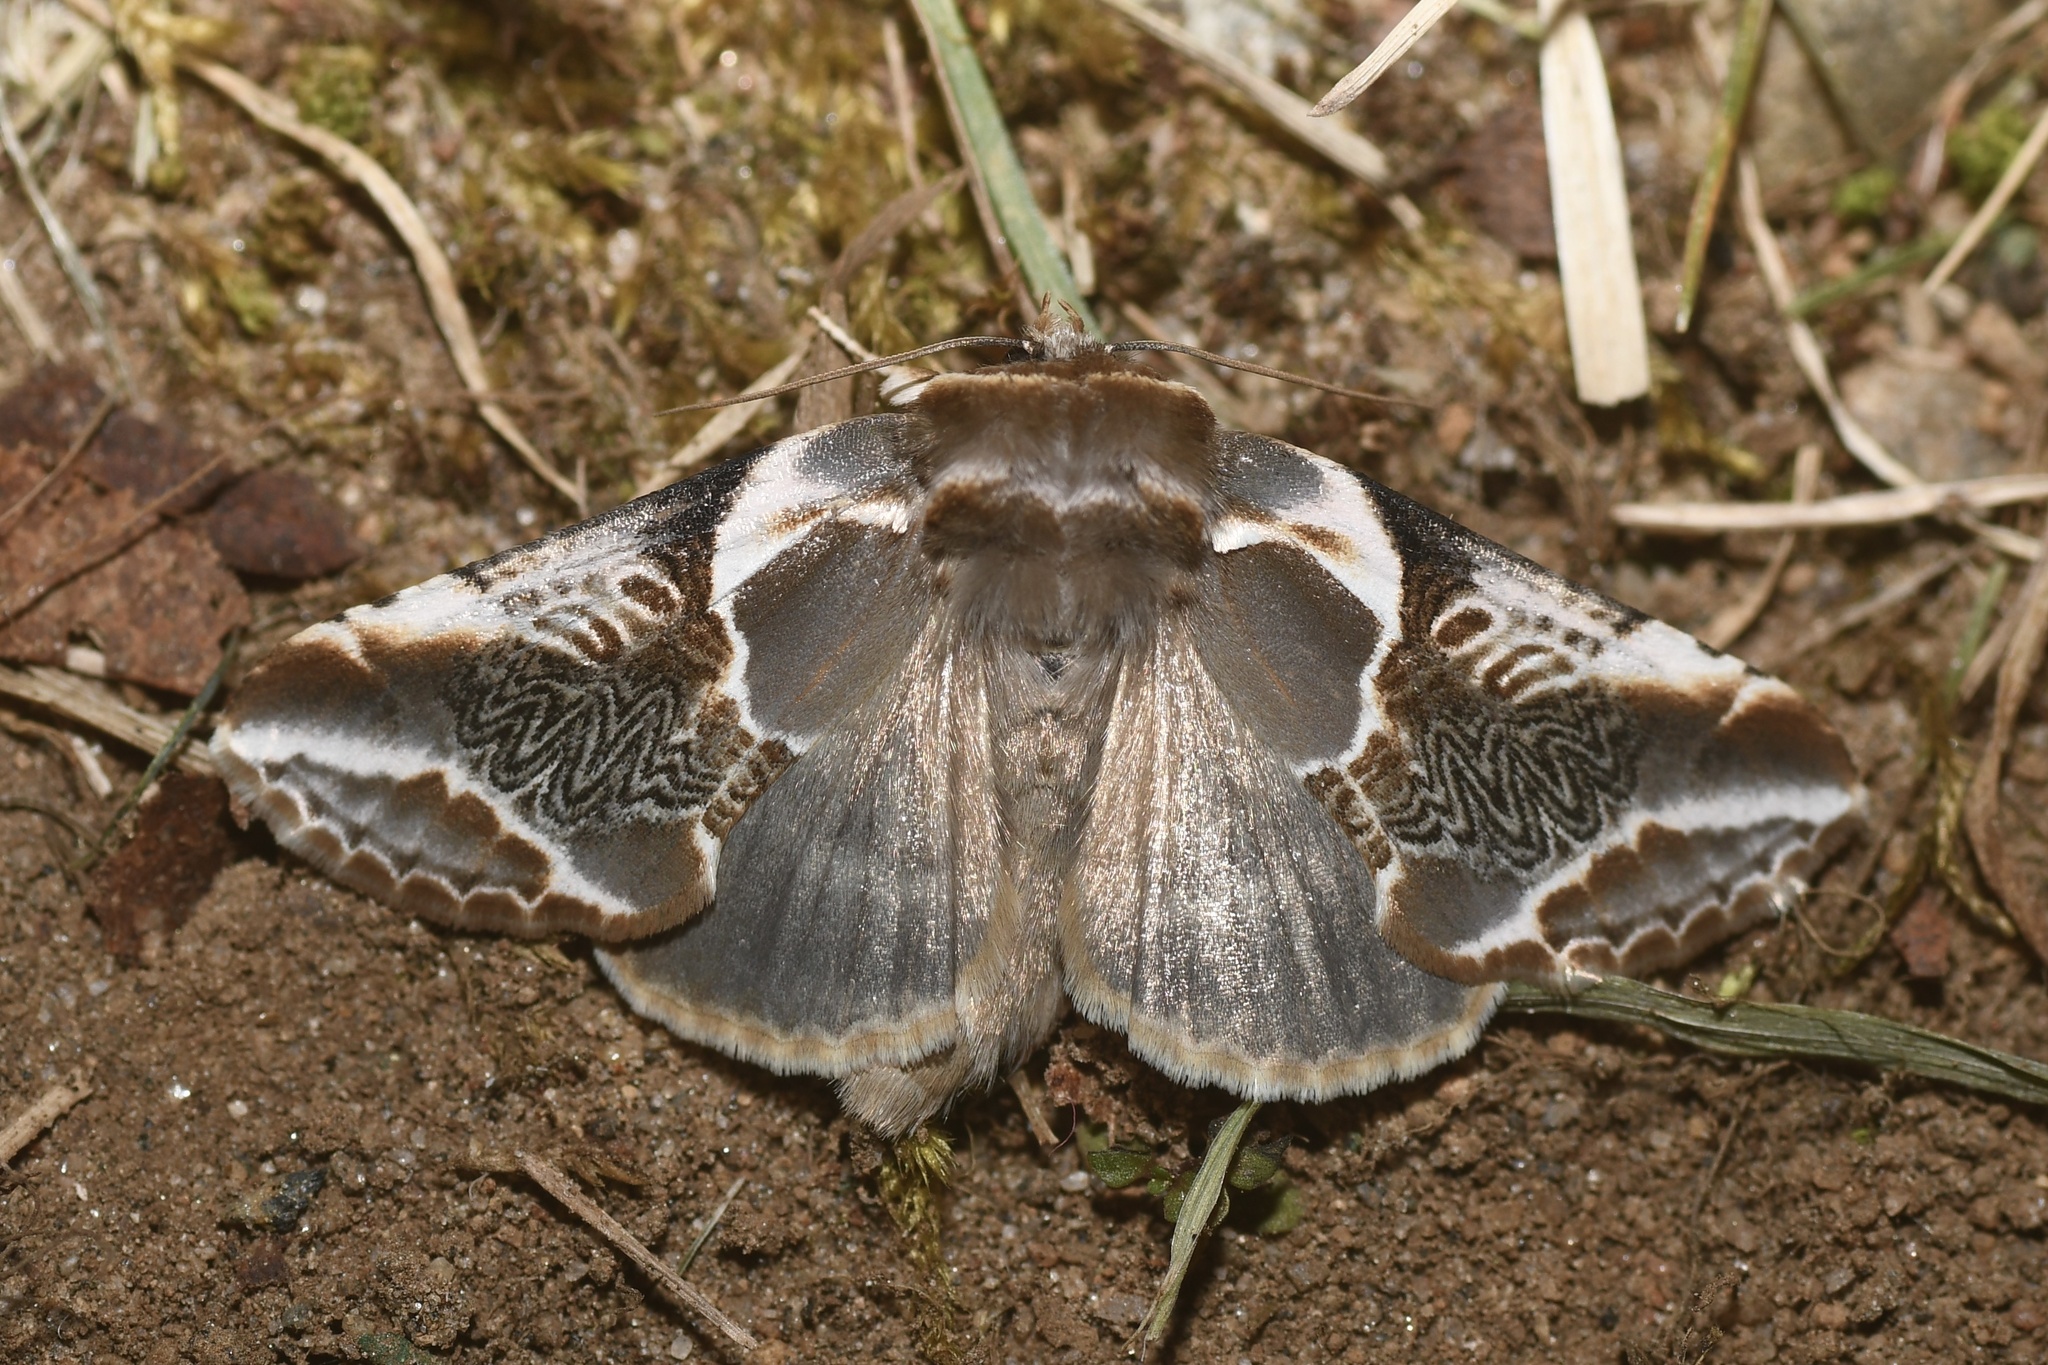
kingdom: Animalia
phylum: Arthropoda
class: Insecta
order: Lepidoptera
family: Drepanidae
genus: Habrosyne
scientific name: Habrosyne scripta
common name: Lettered habrosyne moth
